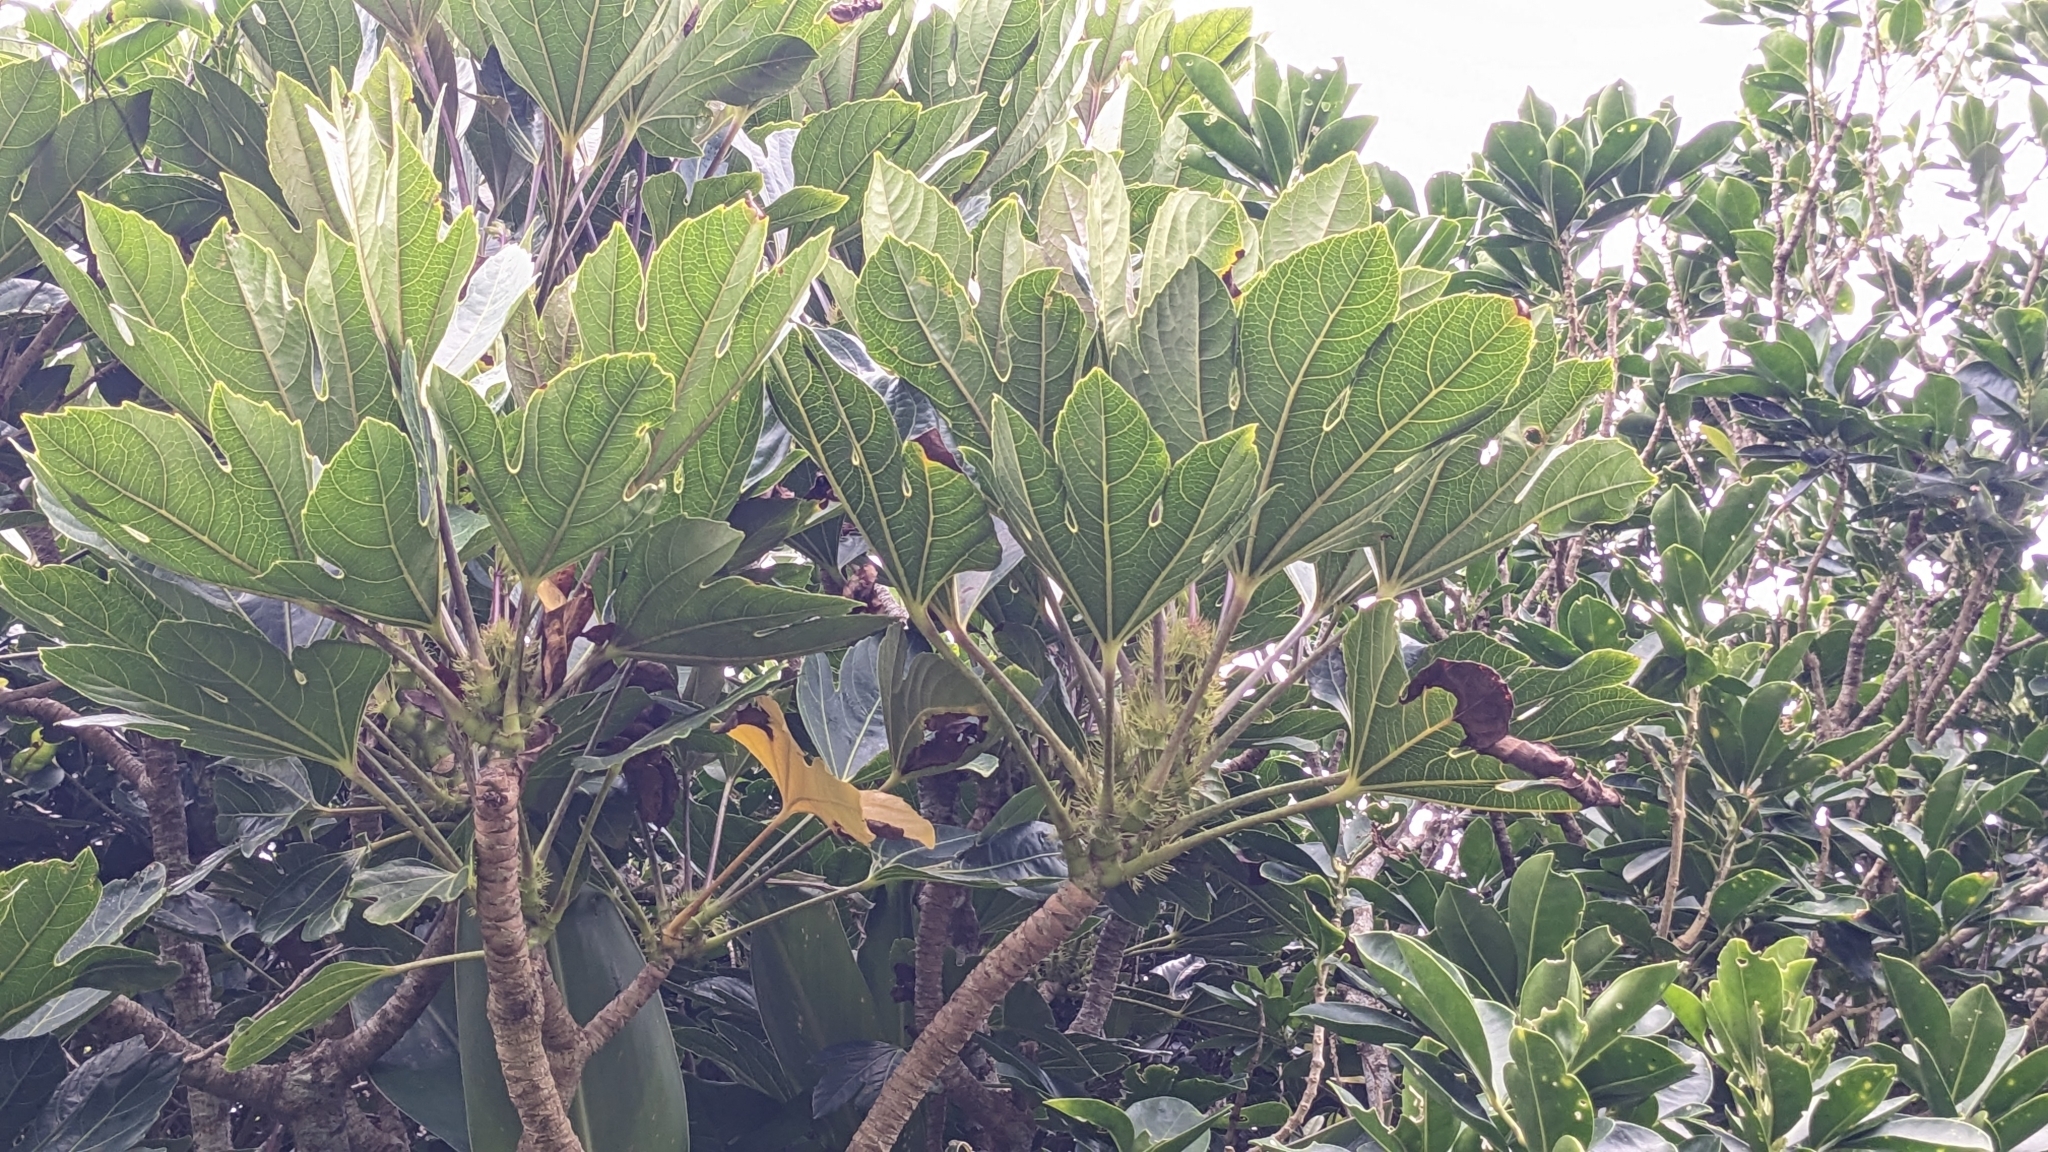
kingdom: Plantae
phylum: Tracheophyta
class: Magnoliopsida
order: Apiales
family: Araliaceae
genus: Osmoxylon
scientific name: Osmoxylon pectinatum
